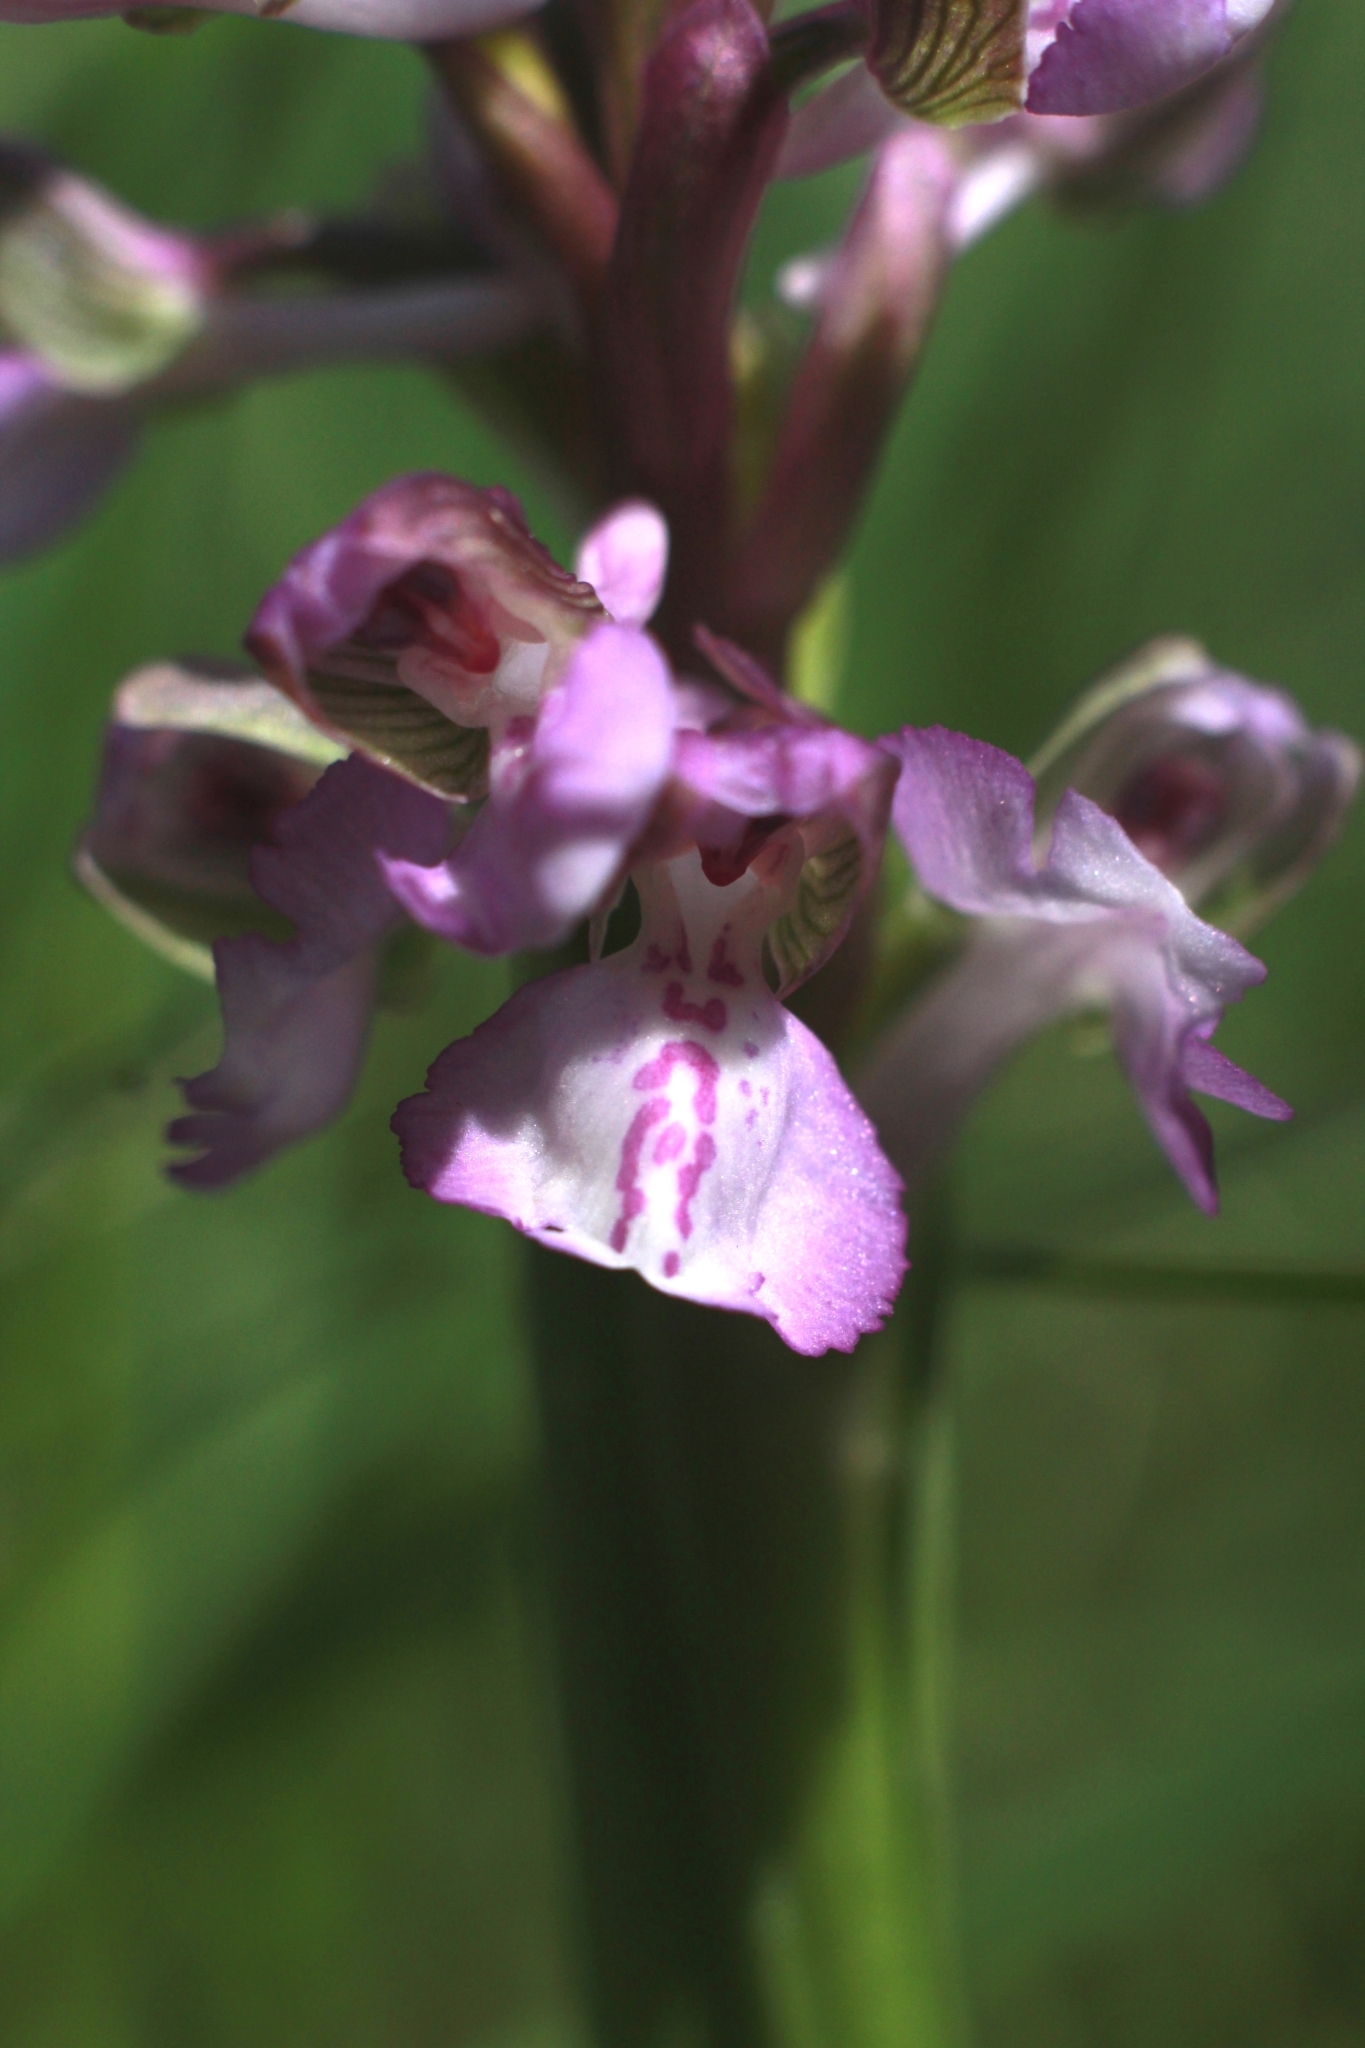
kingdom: Plantae
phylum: Tracheophyta
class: Liliopsida
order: Asparagales
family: Orchidaceae
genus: Anacamptis
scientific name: Anacamptis morio
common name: Green-winged orchid
